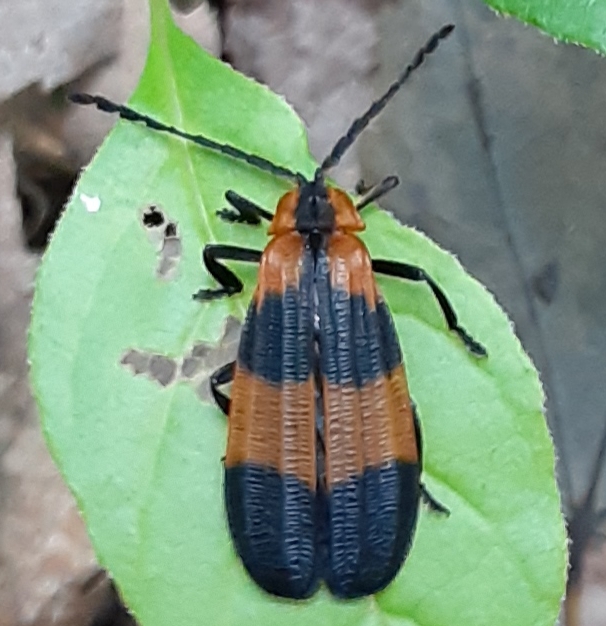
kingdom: Animalia
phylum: Arthropoda
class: Insecta
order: Coleoptera
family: Lycidae
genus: Calopteron
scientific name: Calopteron reticulatum
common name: Banded net-winged beetle
